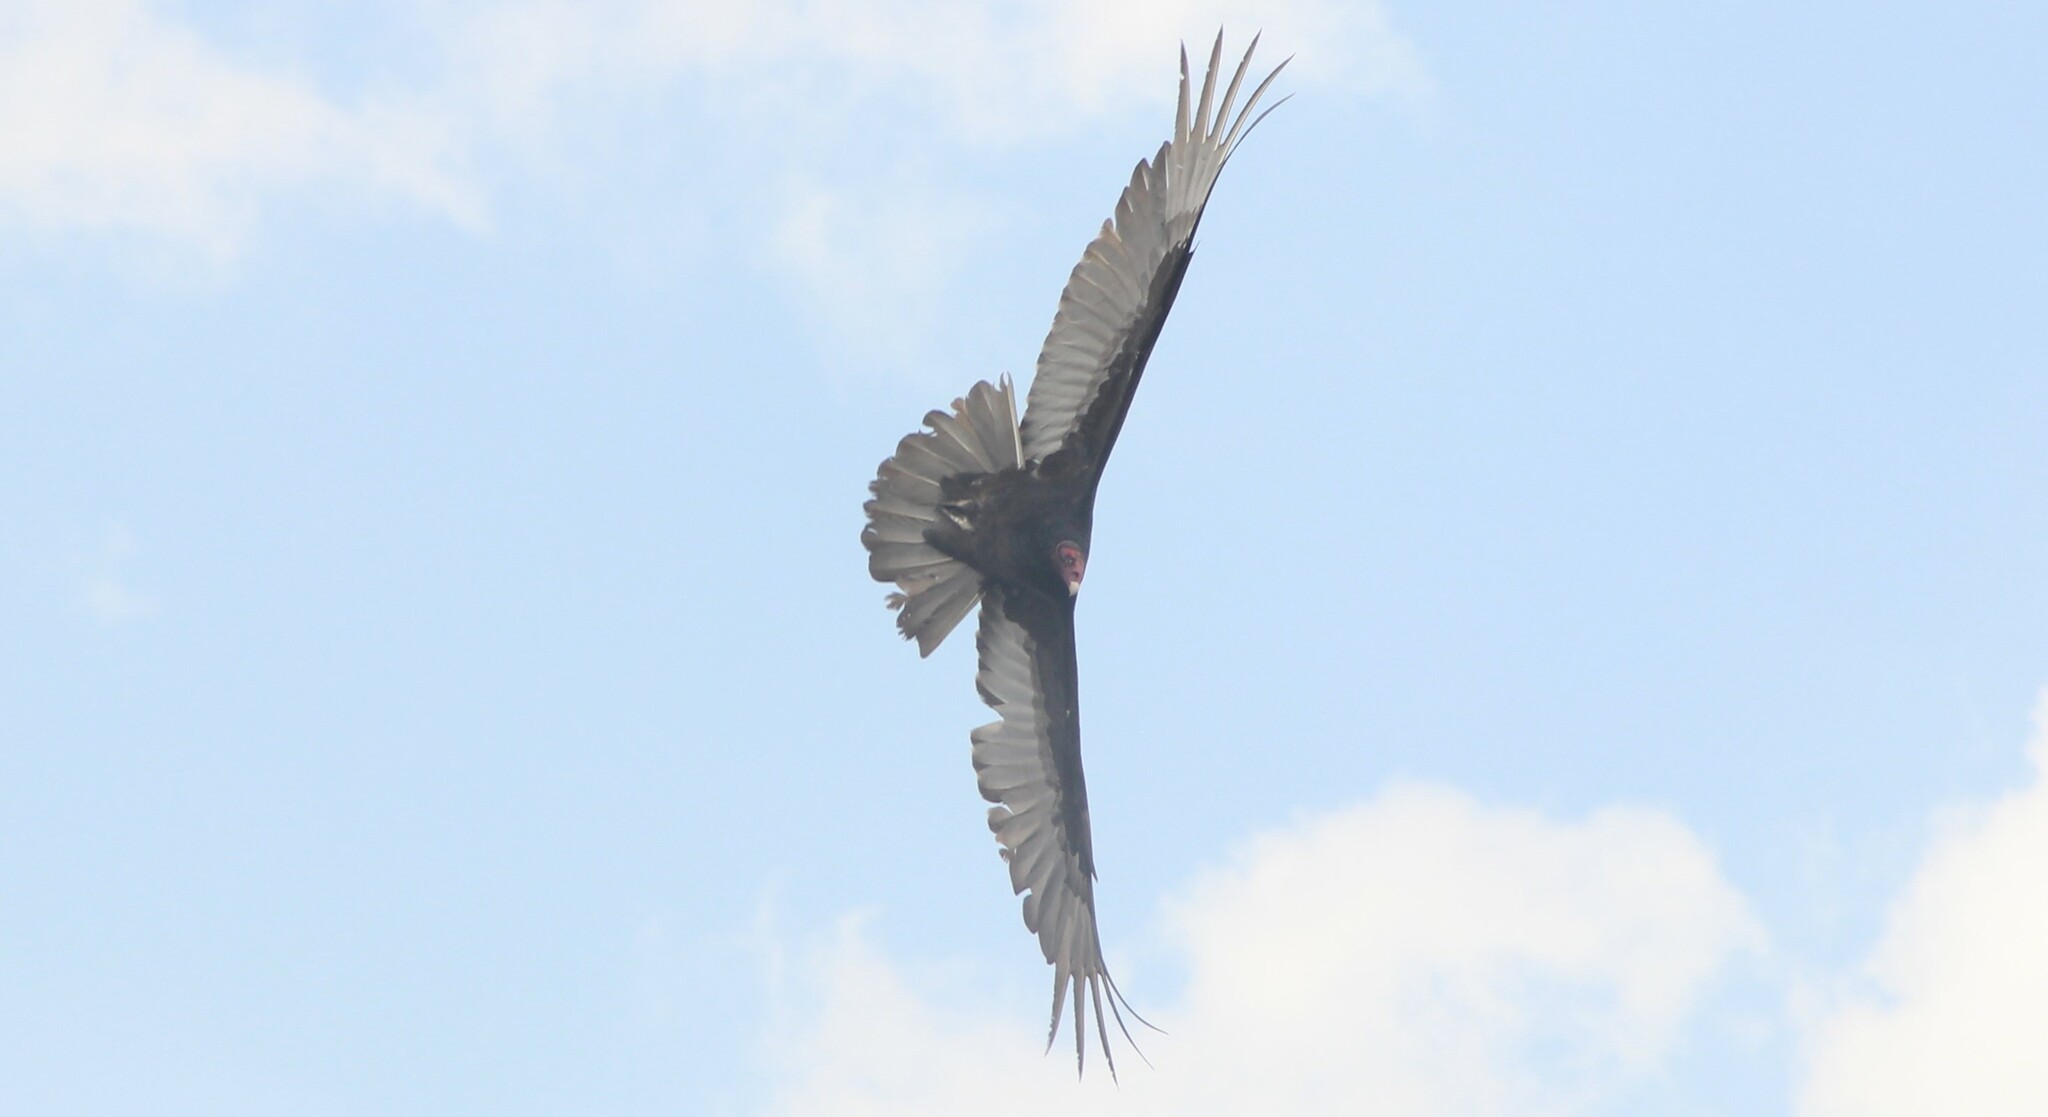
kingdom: Animalia
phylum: Chordata
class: Aves
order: Accipitriformes
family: Cathartidae
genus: Cathartes
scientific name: Cathartes aura
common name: Turkey vulture
